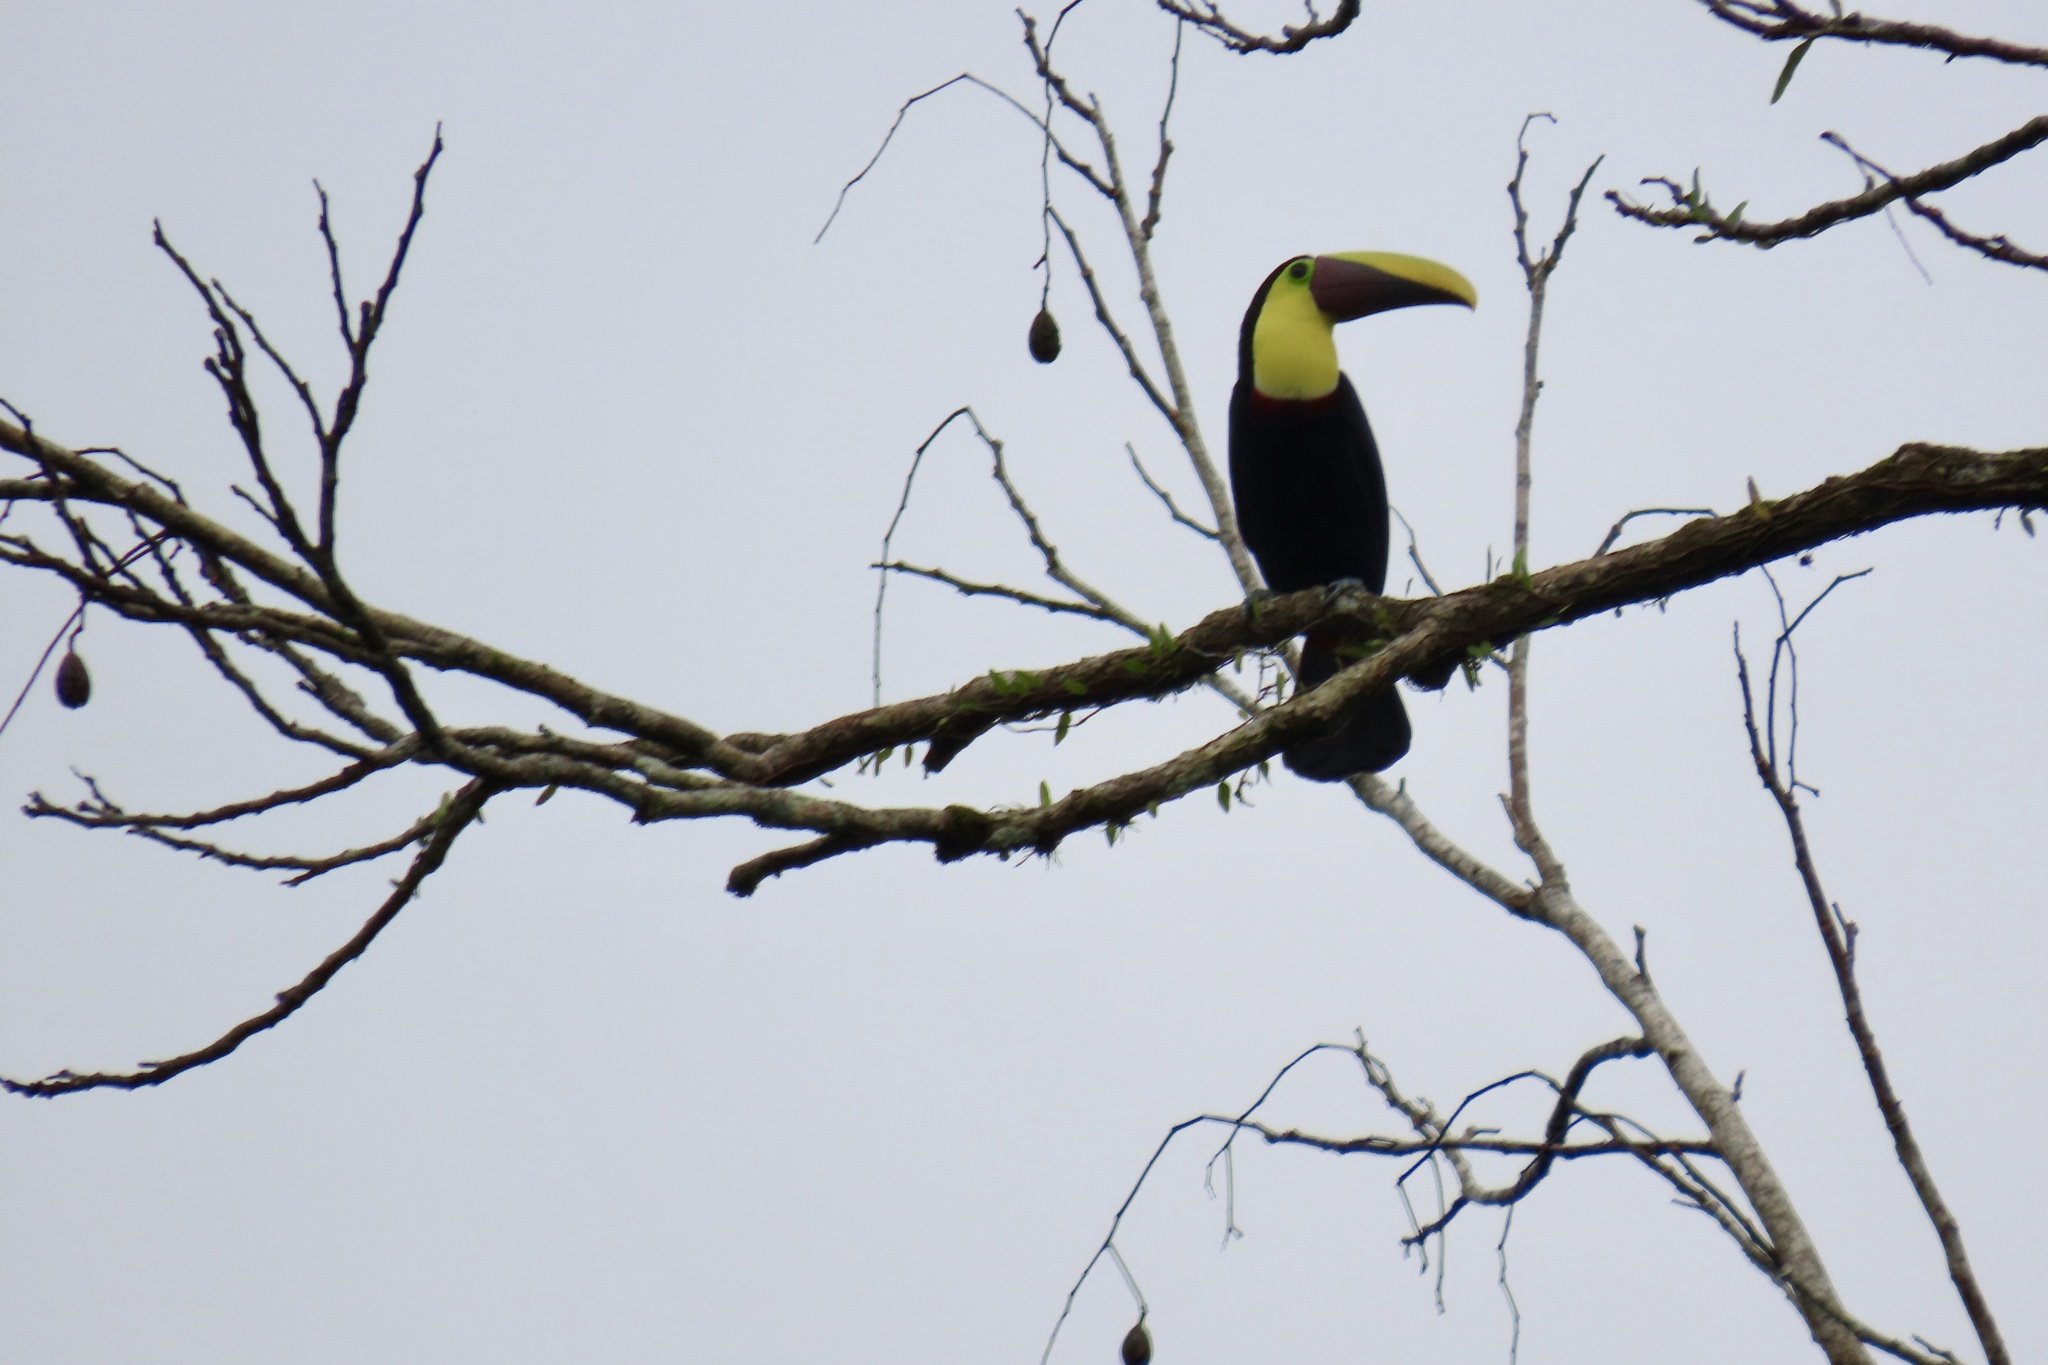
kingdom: Animalia
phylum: Chordata
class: Aves
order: Piciformes
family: Ramphastidae
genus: Ramphastos
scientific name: Ramphastos ambiguus
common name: Yellow-throated toucan
